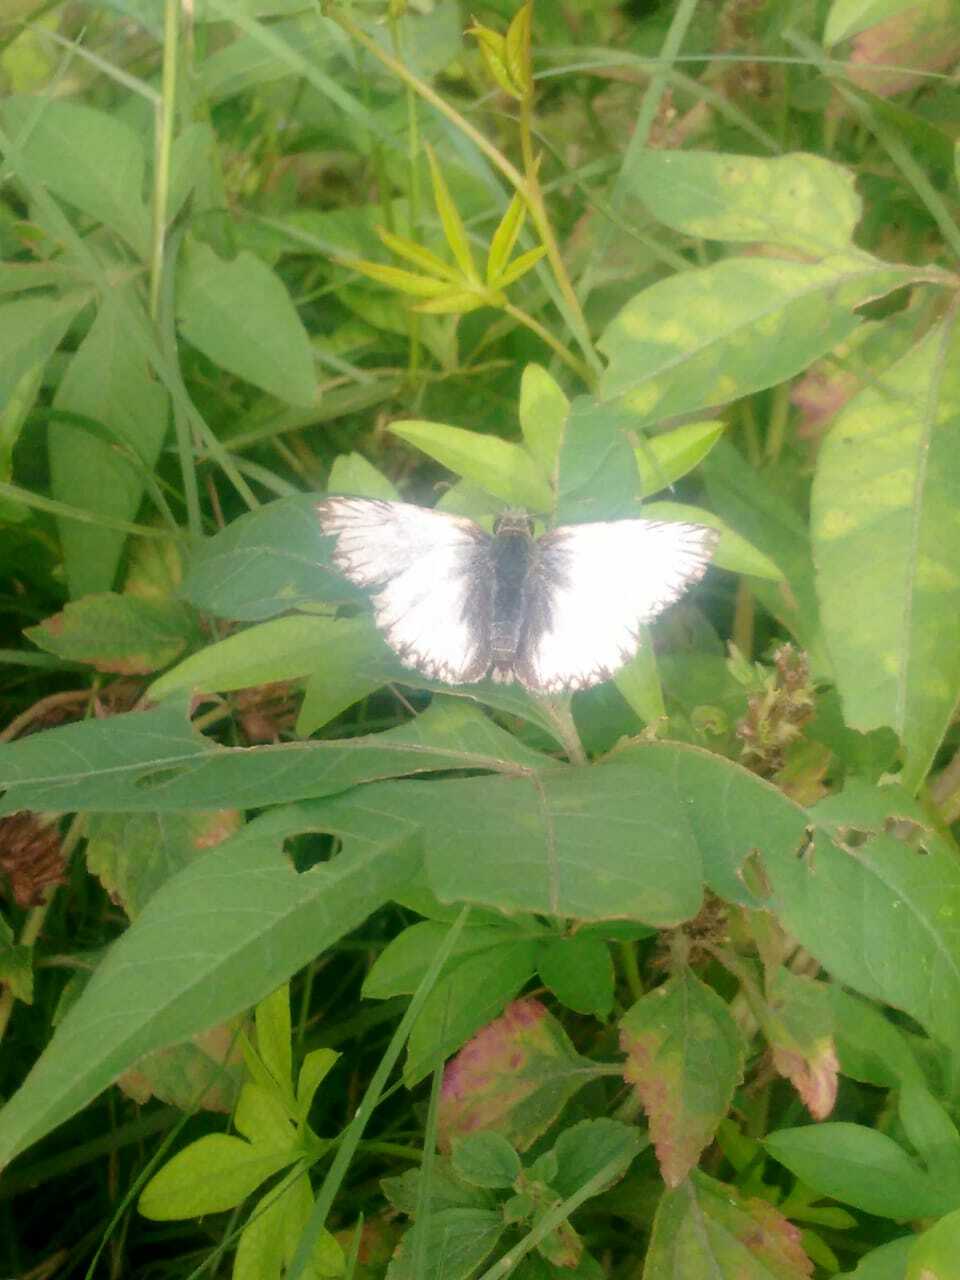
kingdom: Animalia
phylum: Arthropoda
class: Insecta
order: Lepidoptera
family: Hesperiidae
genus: Heliopetes
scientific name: Heliopetes omrina
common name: Stained white-skipper
